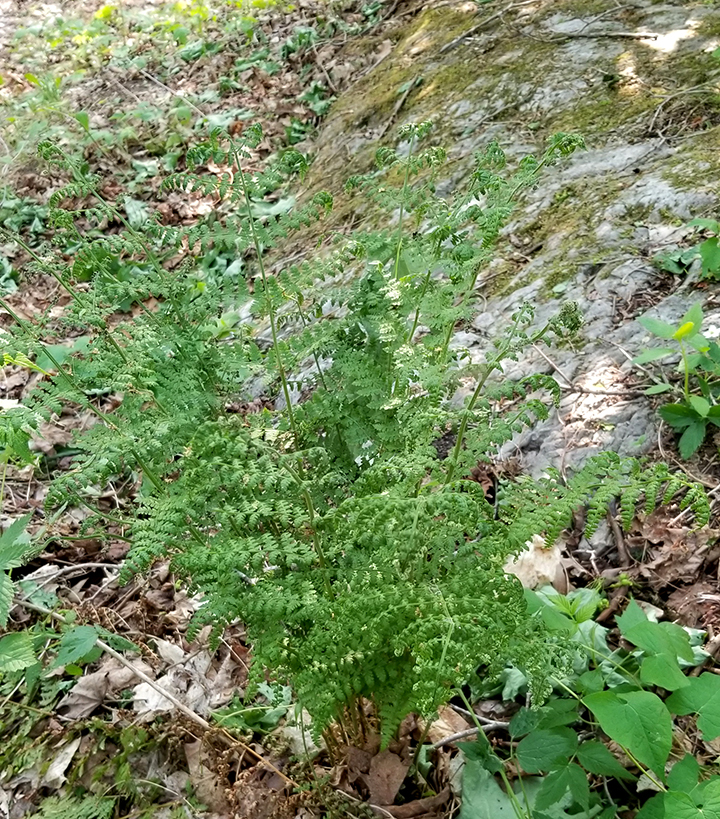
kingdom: Plantae
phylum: Tracheophyta
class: Polypodiopsida
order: Polypodiales
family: Dryopteridaceae
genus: Dryopteris
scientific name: Dryopteris intermedia
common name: Evergreen wood fern
